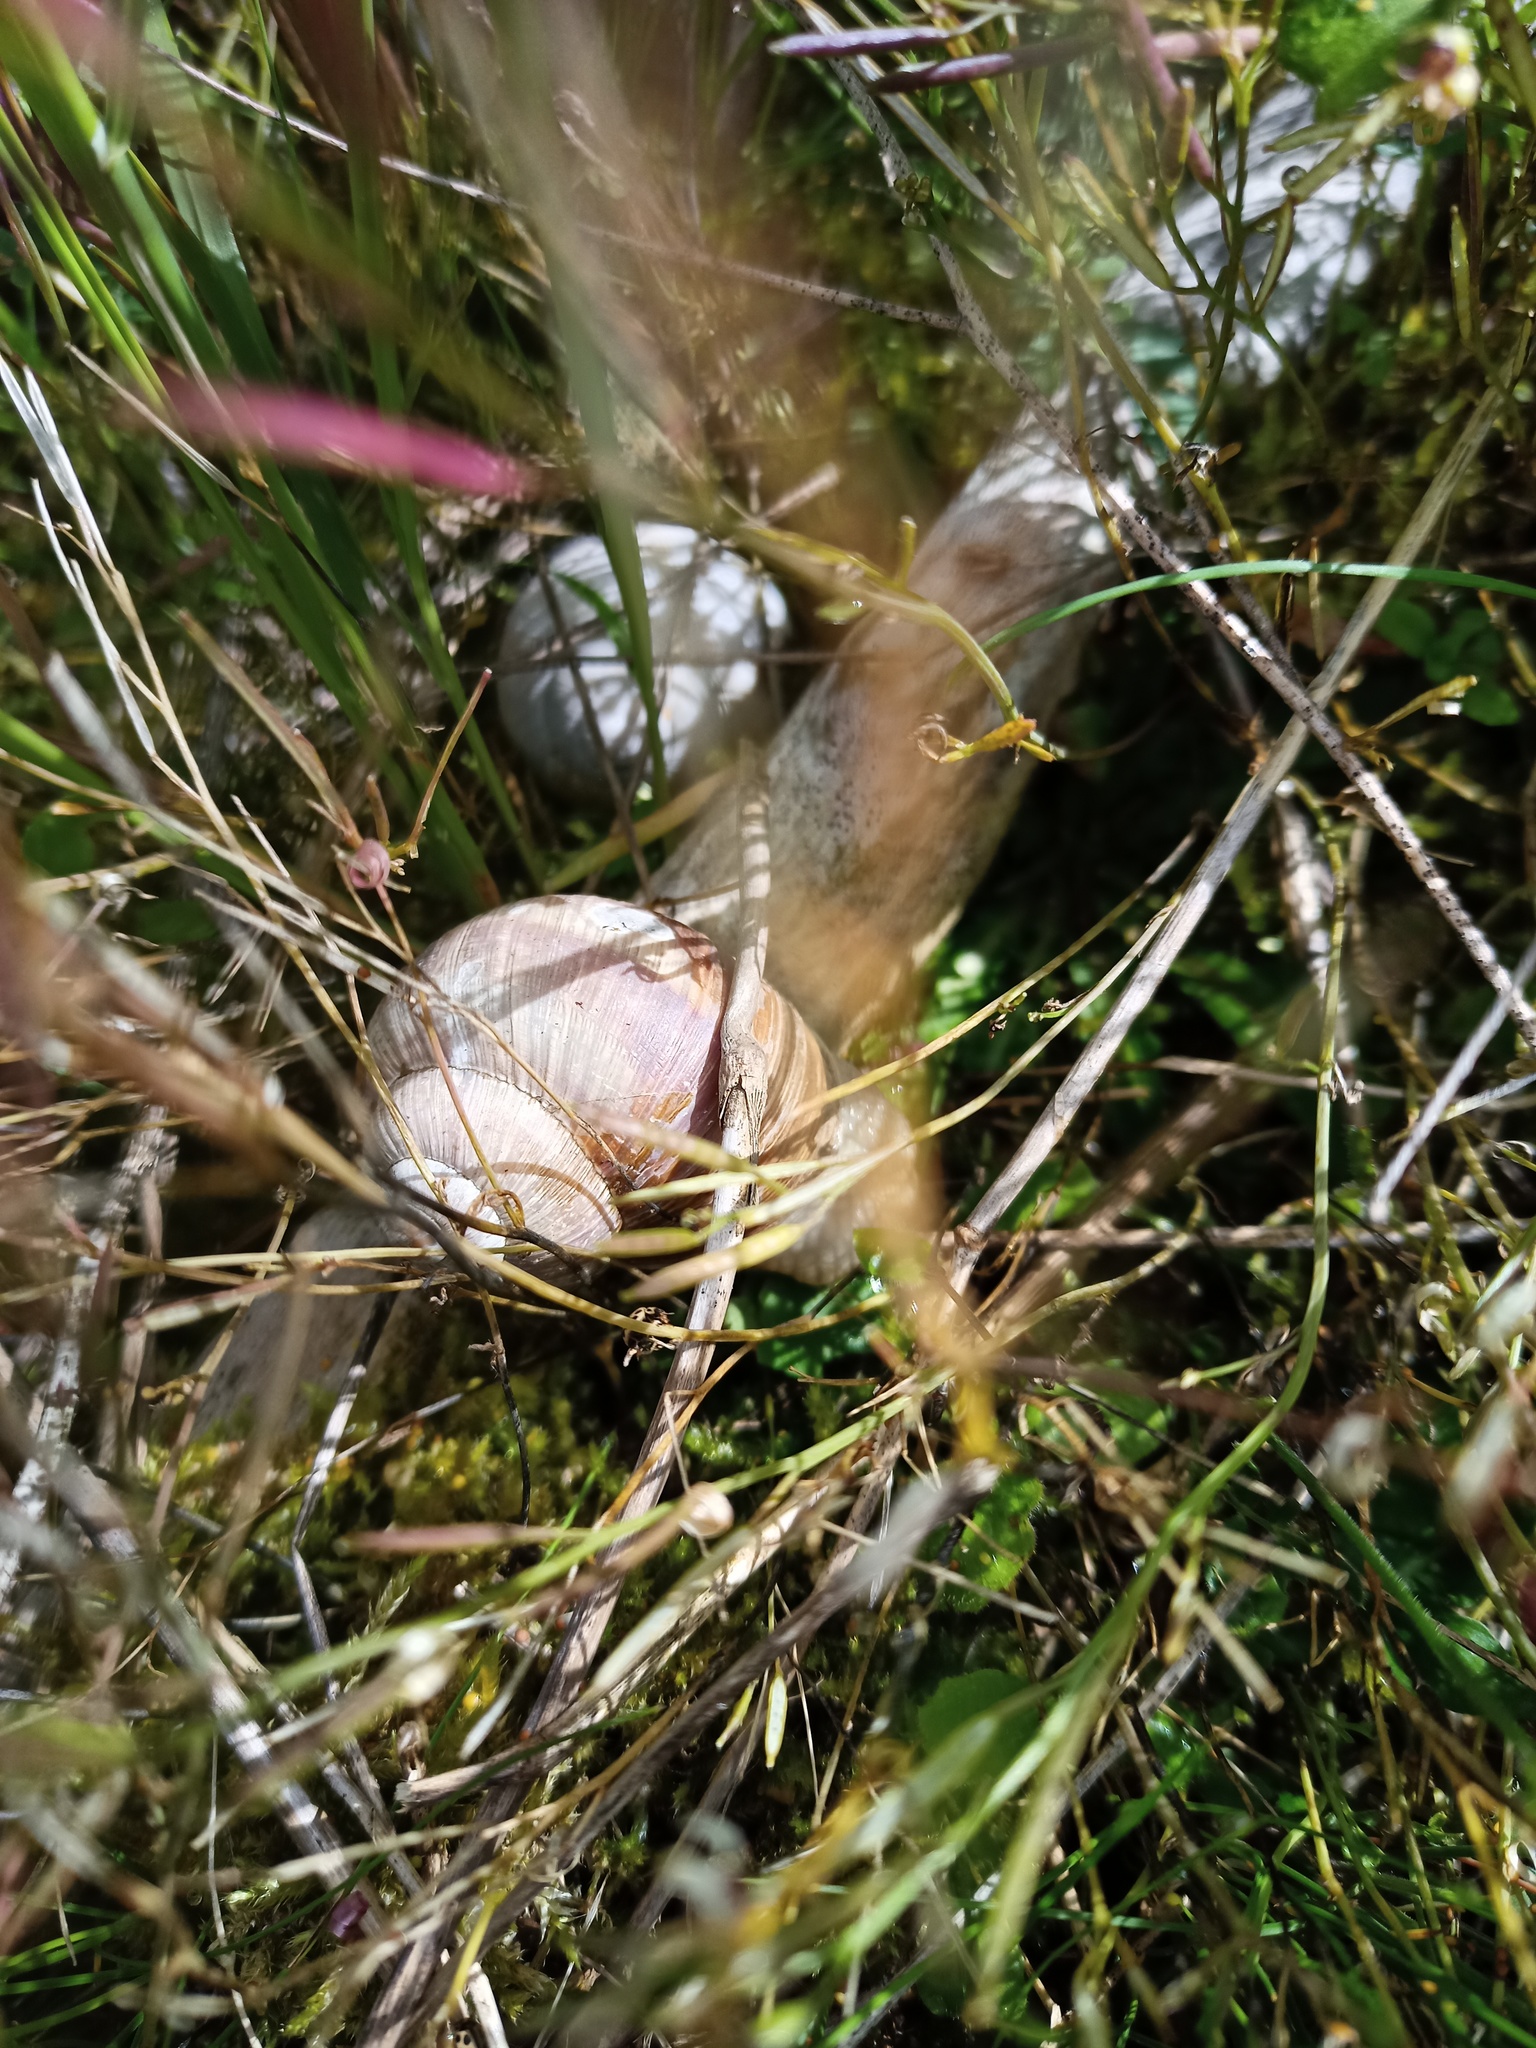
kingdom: Animalia
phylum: Mollusca
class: Gastropoda
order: Stylommatophora
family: Helicidae
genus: Helix
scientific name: Helix pomatia
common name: Roman snail
